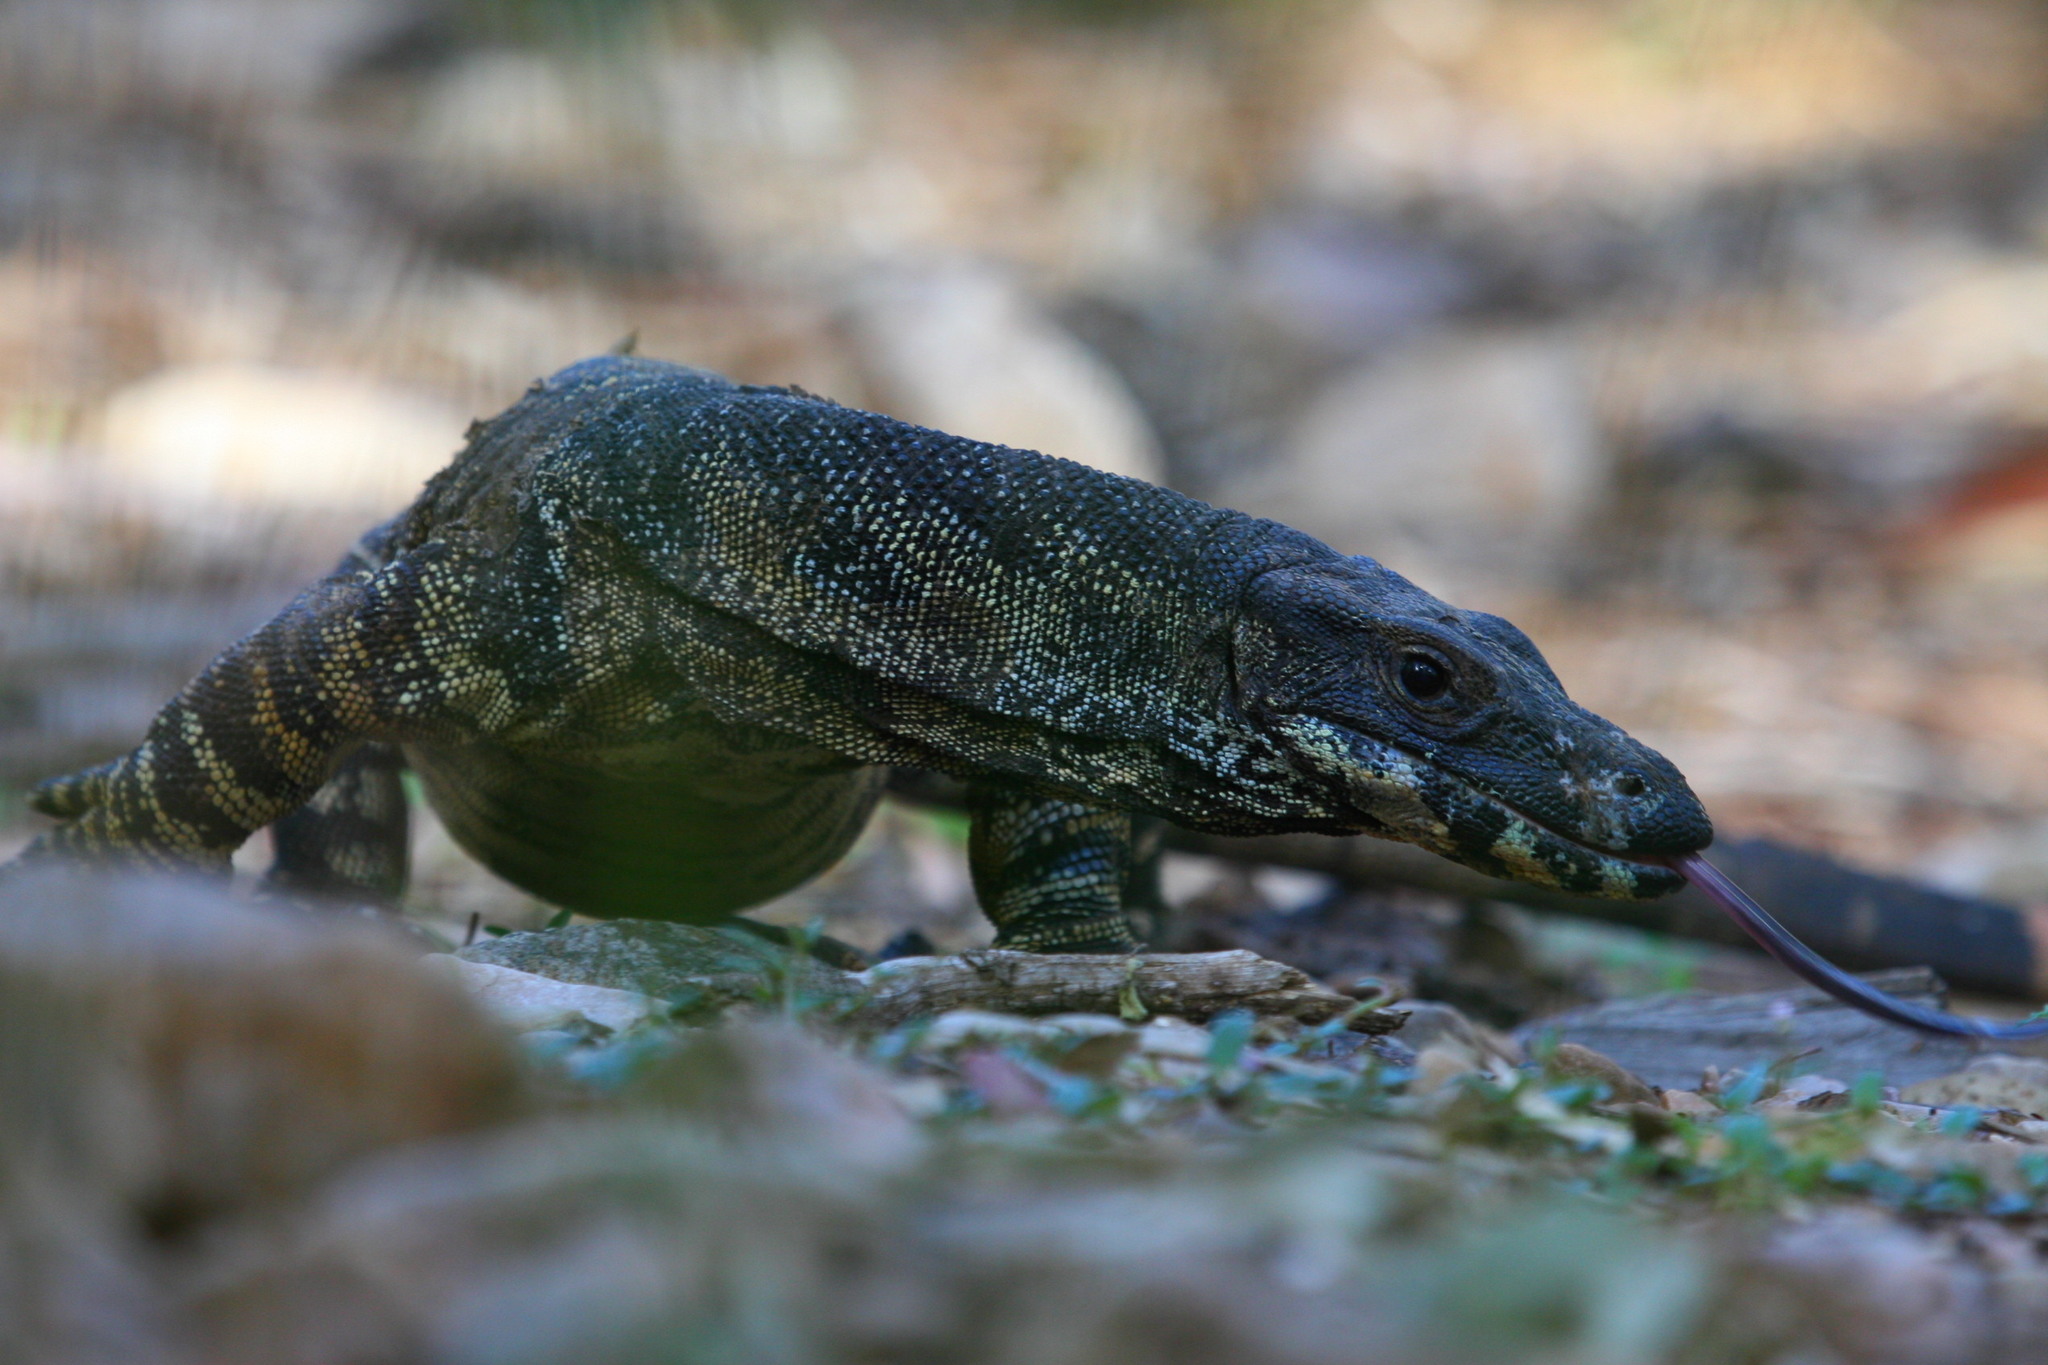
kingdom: Animalia
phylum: Chordata
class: Squamata
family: Varanidae
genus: Varanus
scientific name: Varanus varius
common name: Lace monitor
